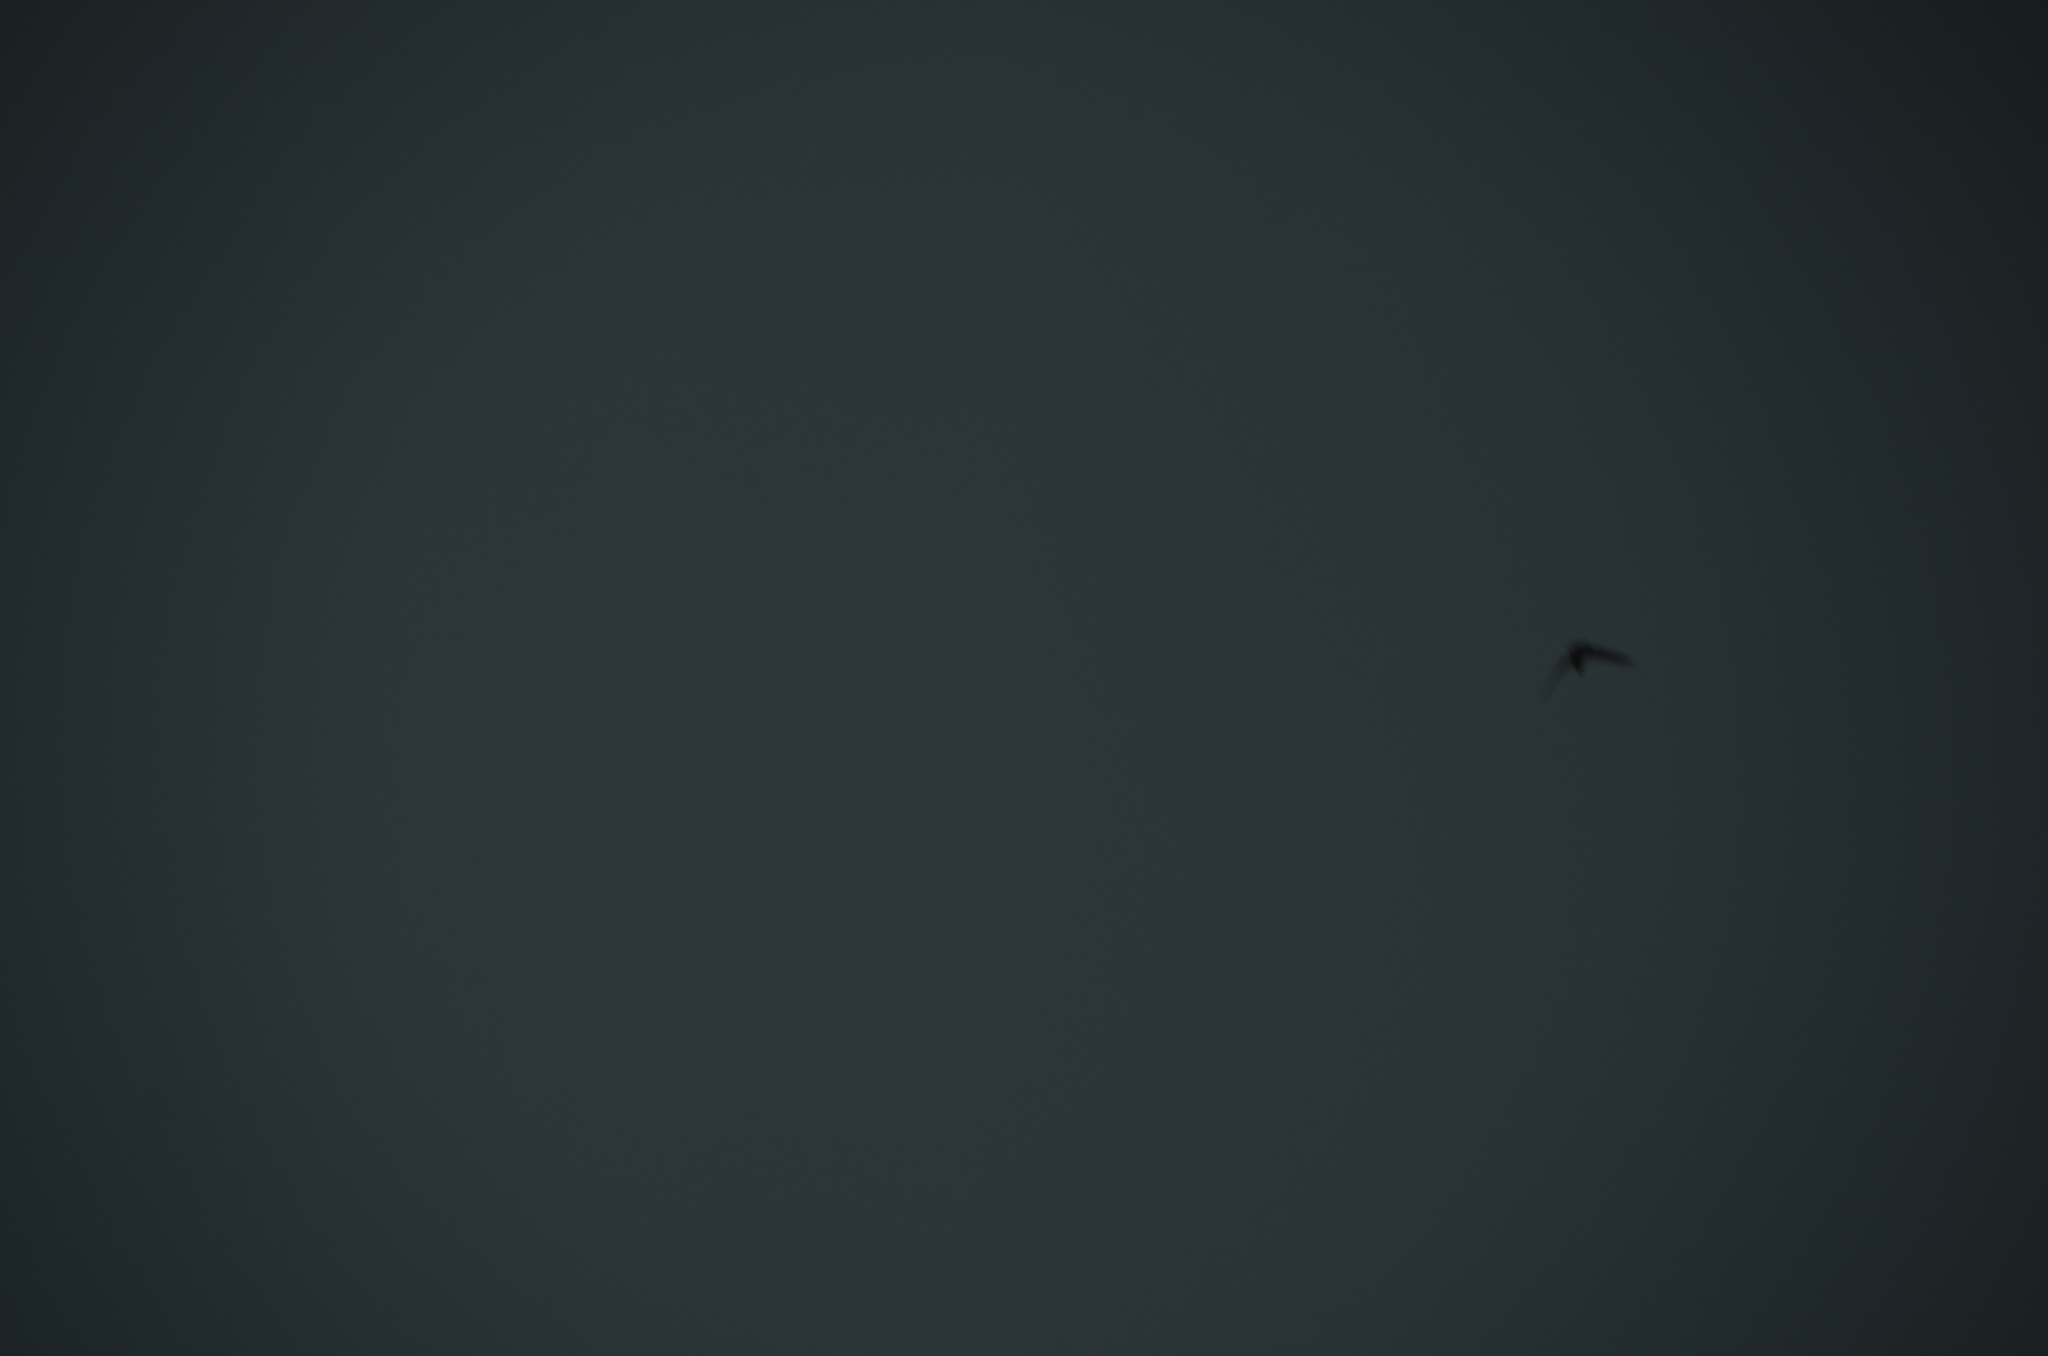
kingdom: Animalia
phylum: Chordata
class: Aves
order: Accipitriformes
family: Accipitridae
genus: Haliaeetus
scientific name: Haliaeetus leucocephalus
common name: Bald eagle
